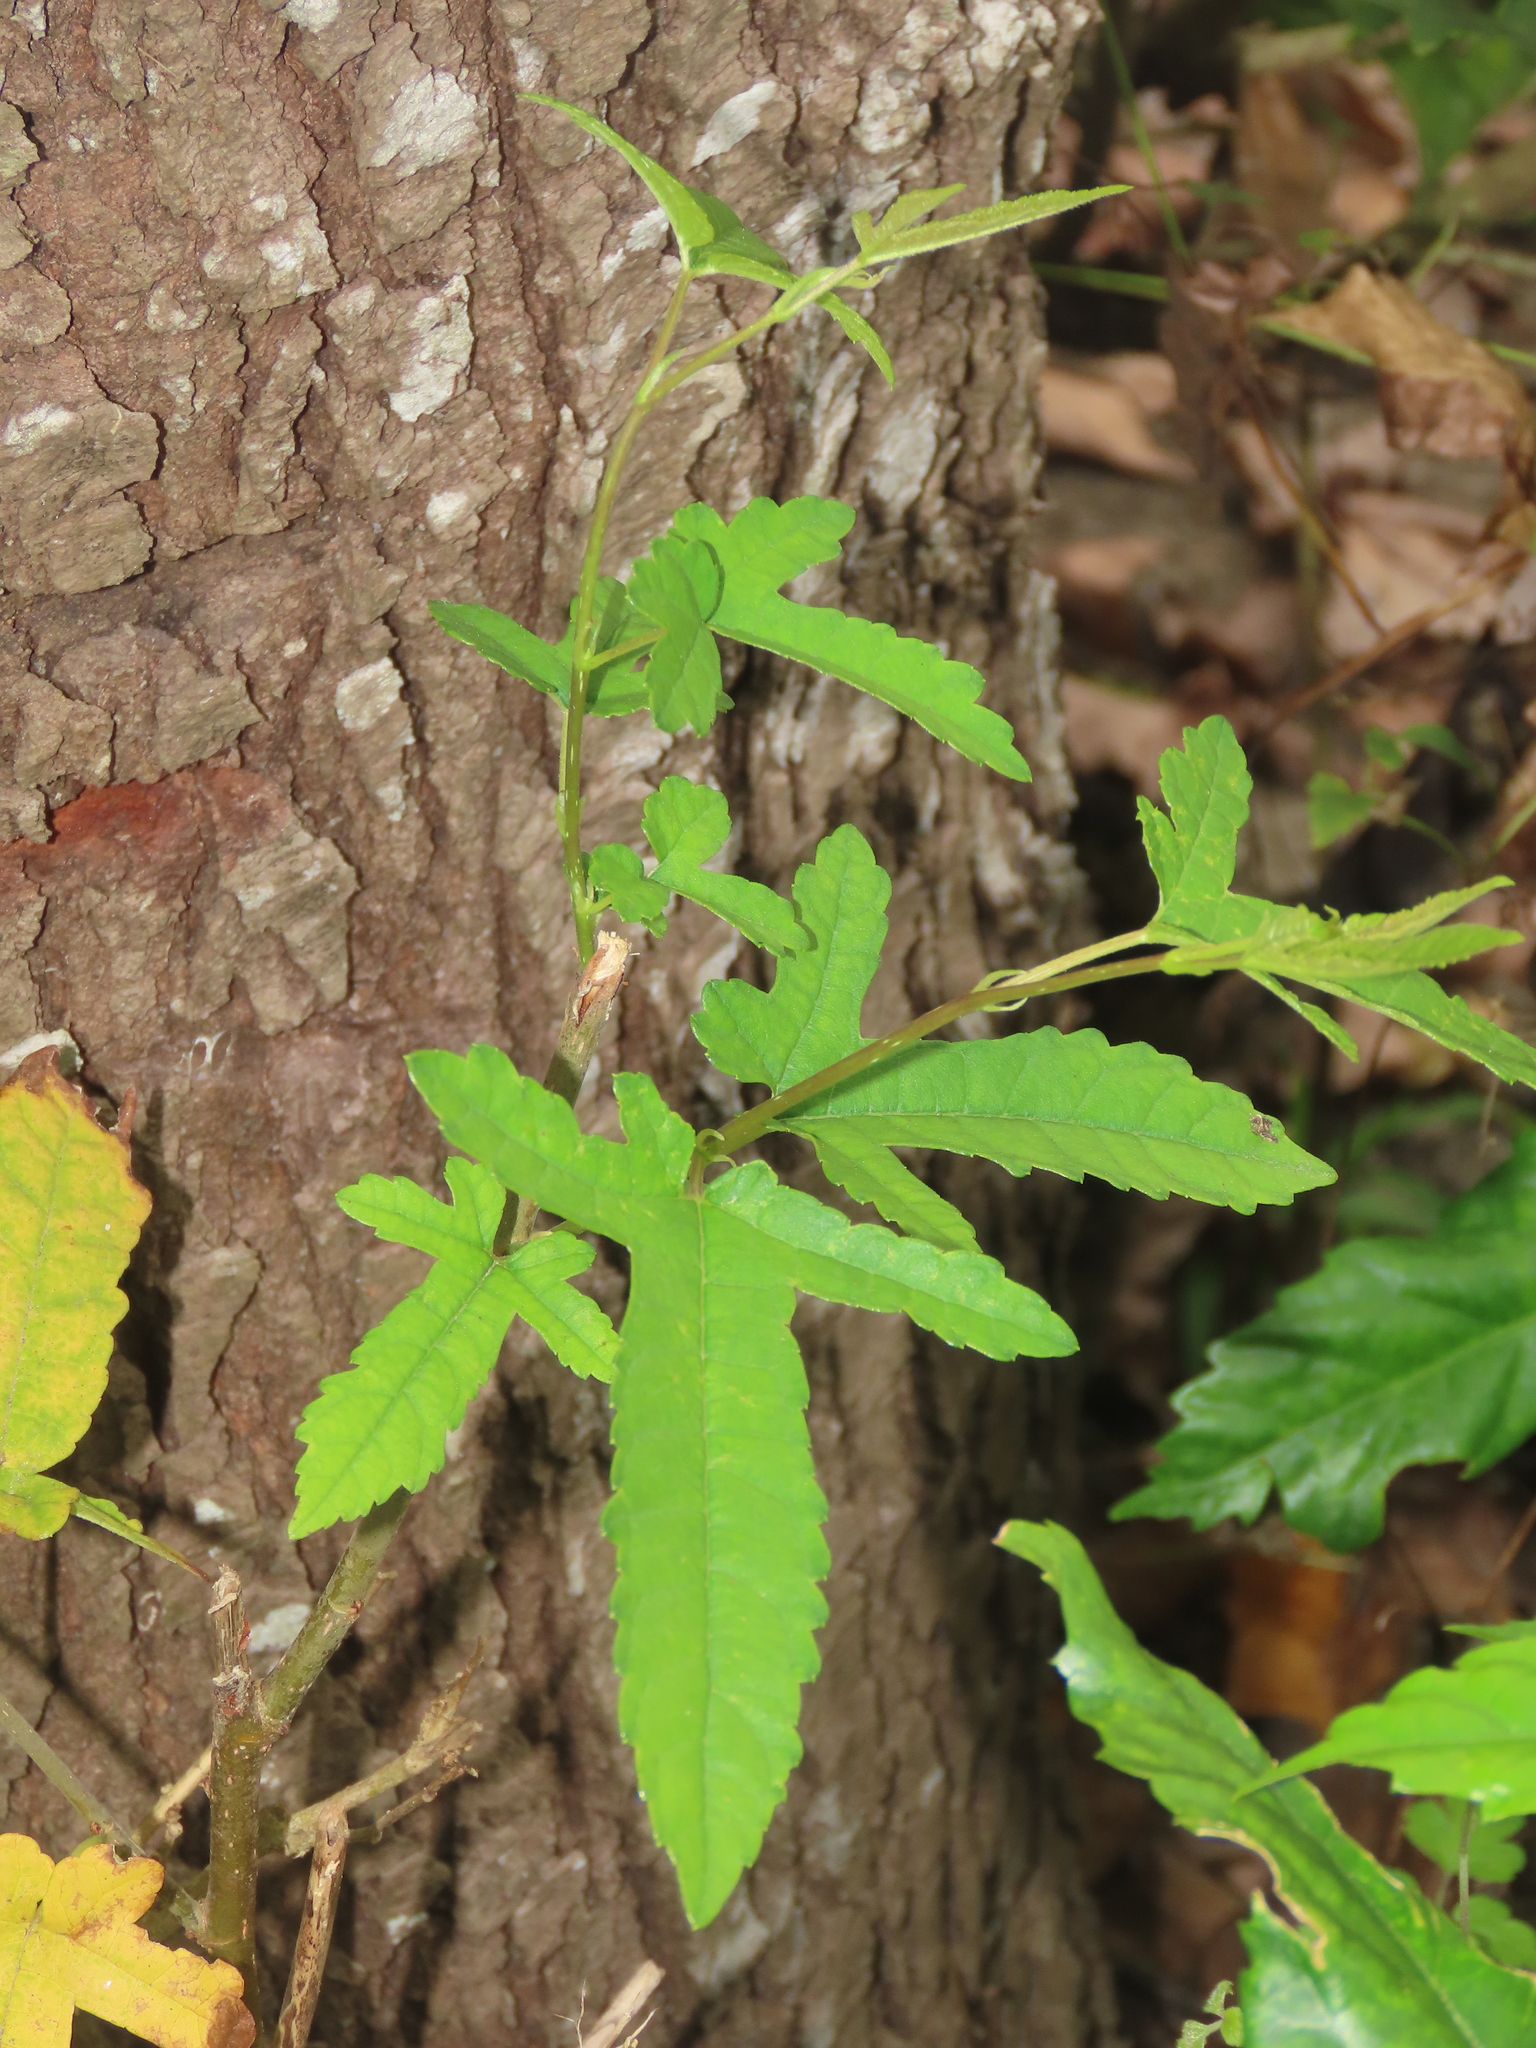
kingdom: Plantae
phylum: Tracheophyta
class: Magnoliopsida
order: Rosales
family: Moraceae
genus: Morus
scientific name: Morus indica
